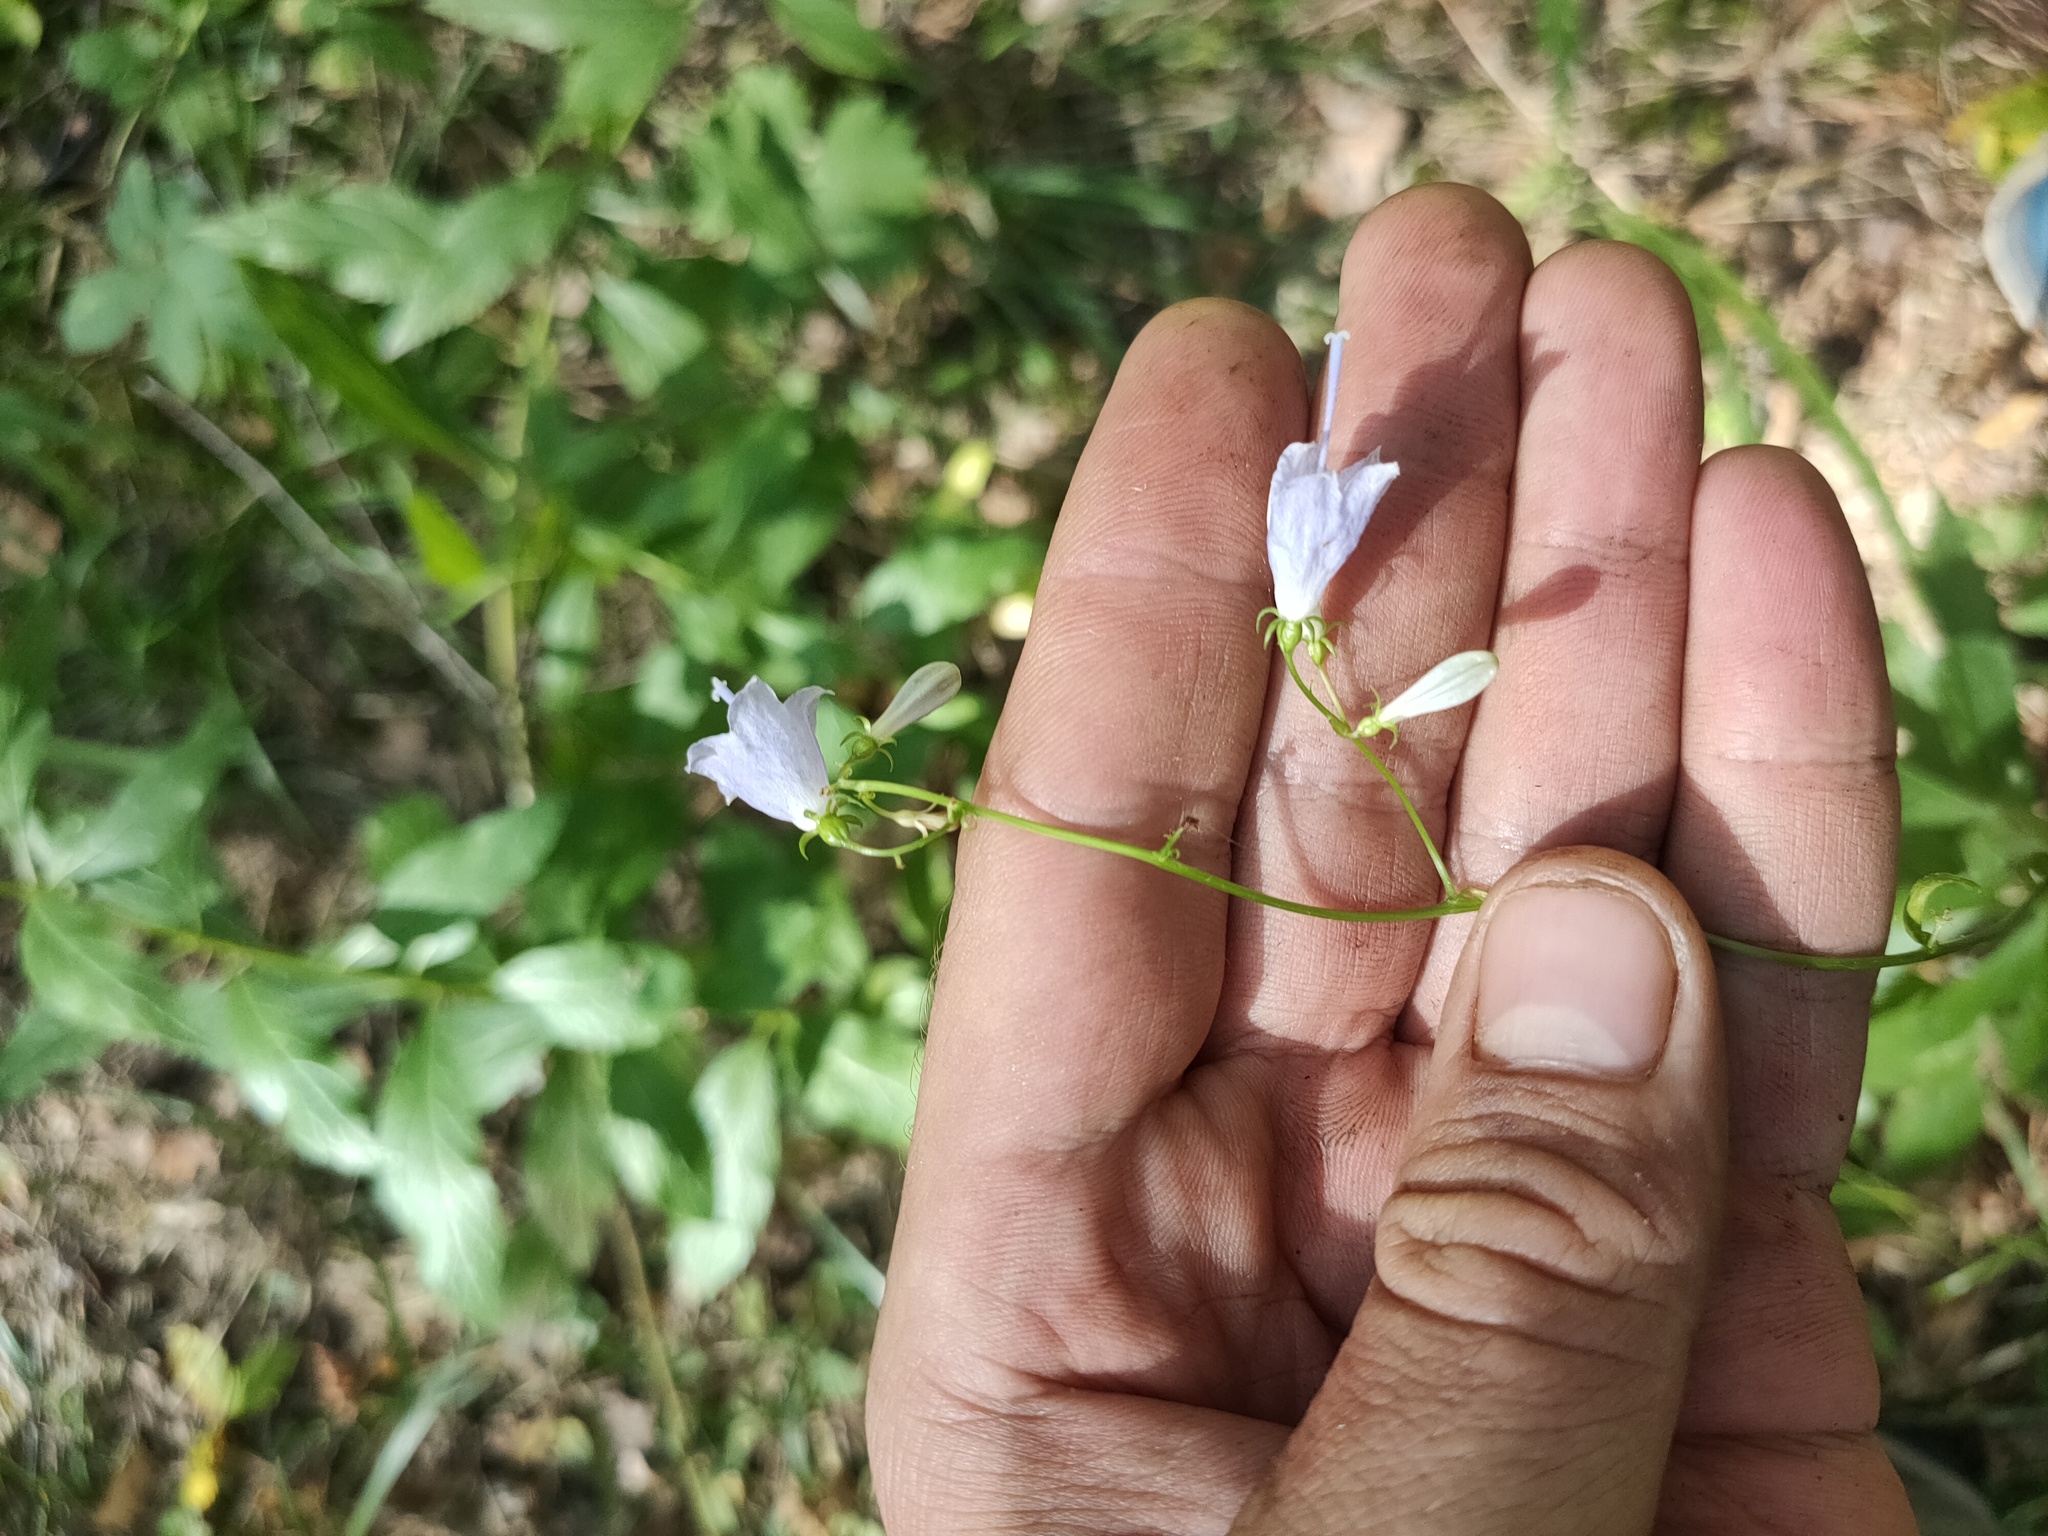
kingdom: Plantae
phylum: Tracheophyta
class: Magnoliopsida
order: Asterales
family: Campanulaceae
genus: Adenophora
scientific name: Adenophora liliifolia
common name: Lilyleaf ladybells
